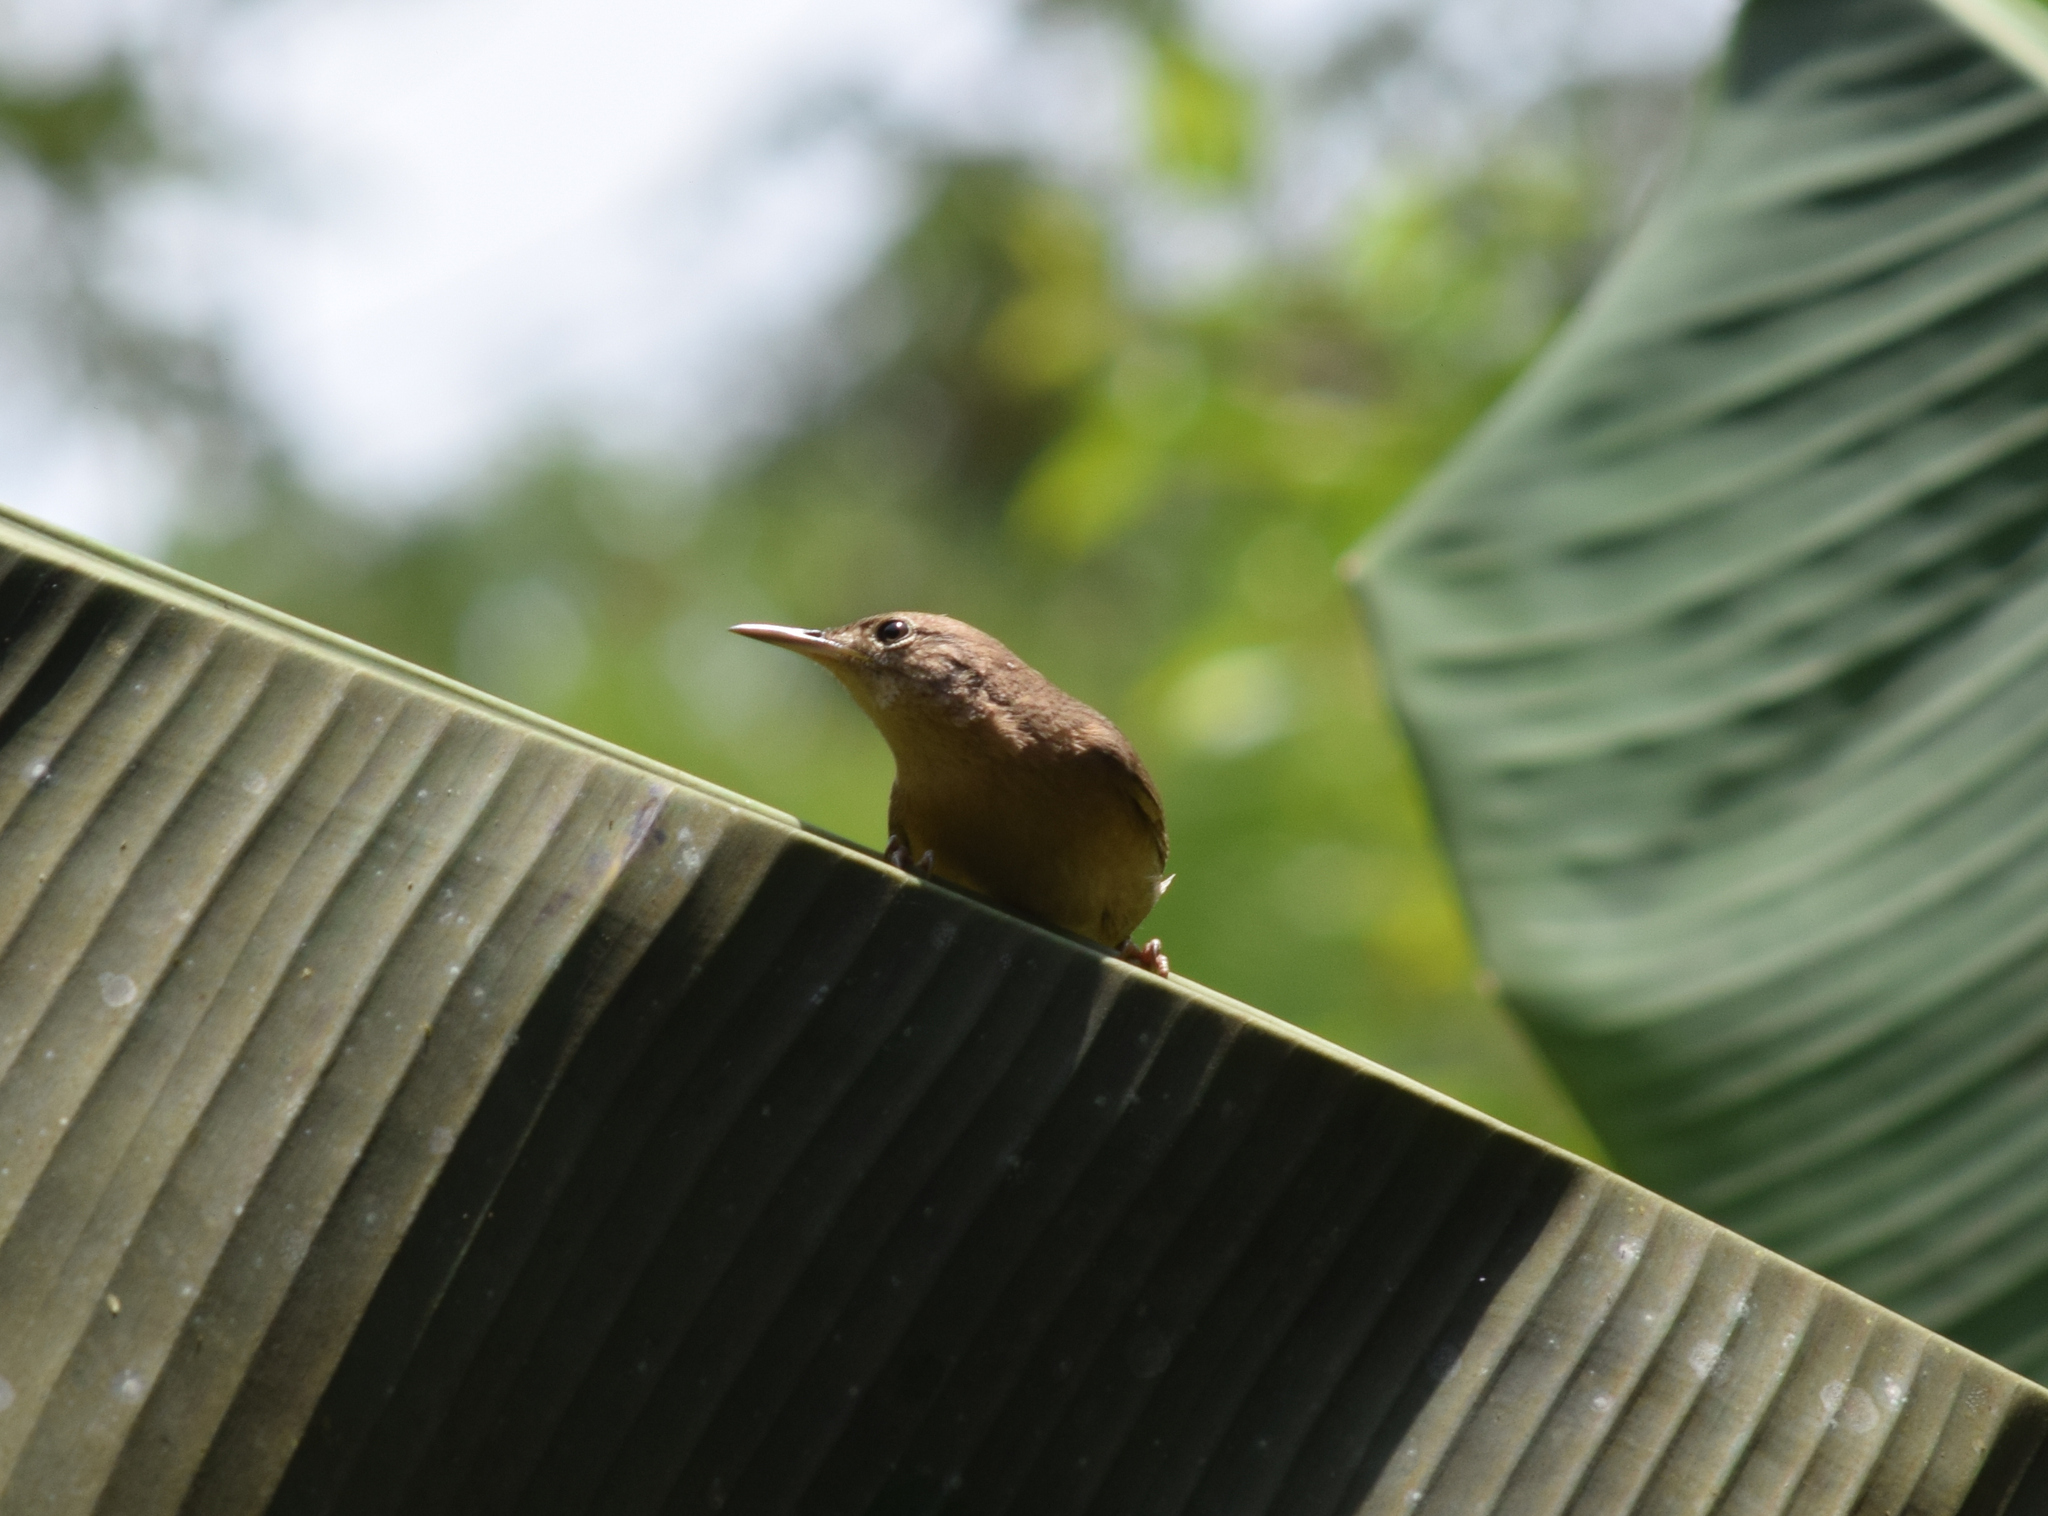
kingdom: Animalia
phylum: Chordata
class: Aves
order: Passeriformes
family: Troglodytidae
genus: Troglodytes
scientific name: Troglodytes aedon
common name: House wren
